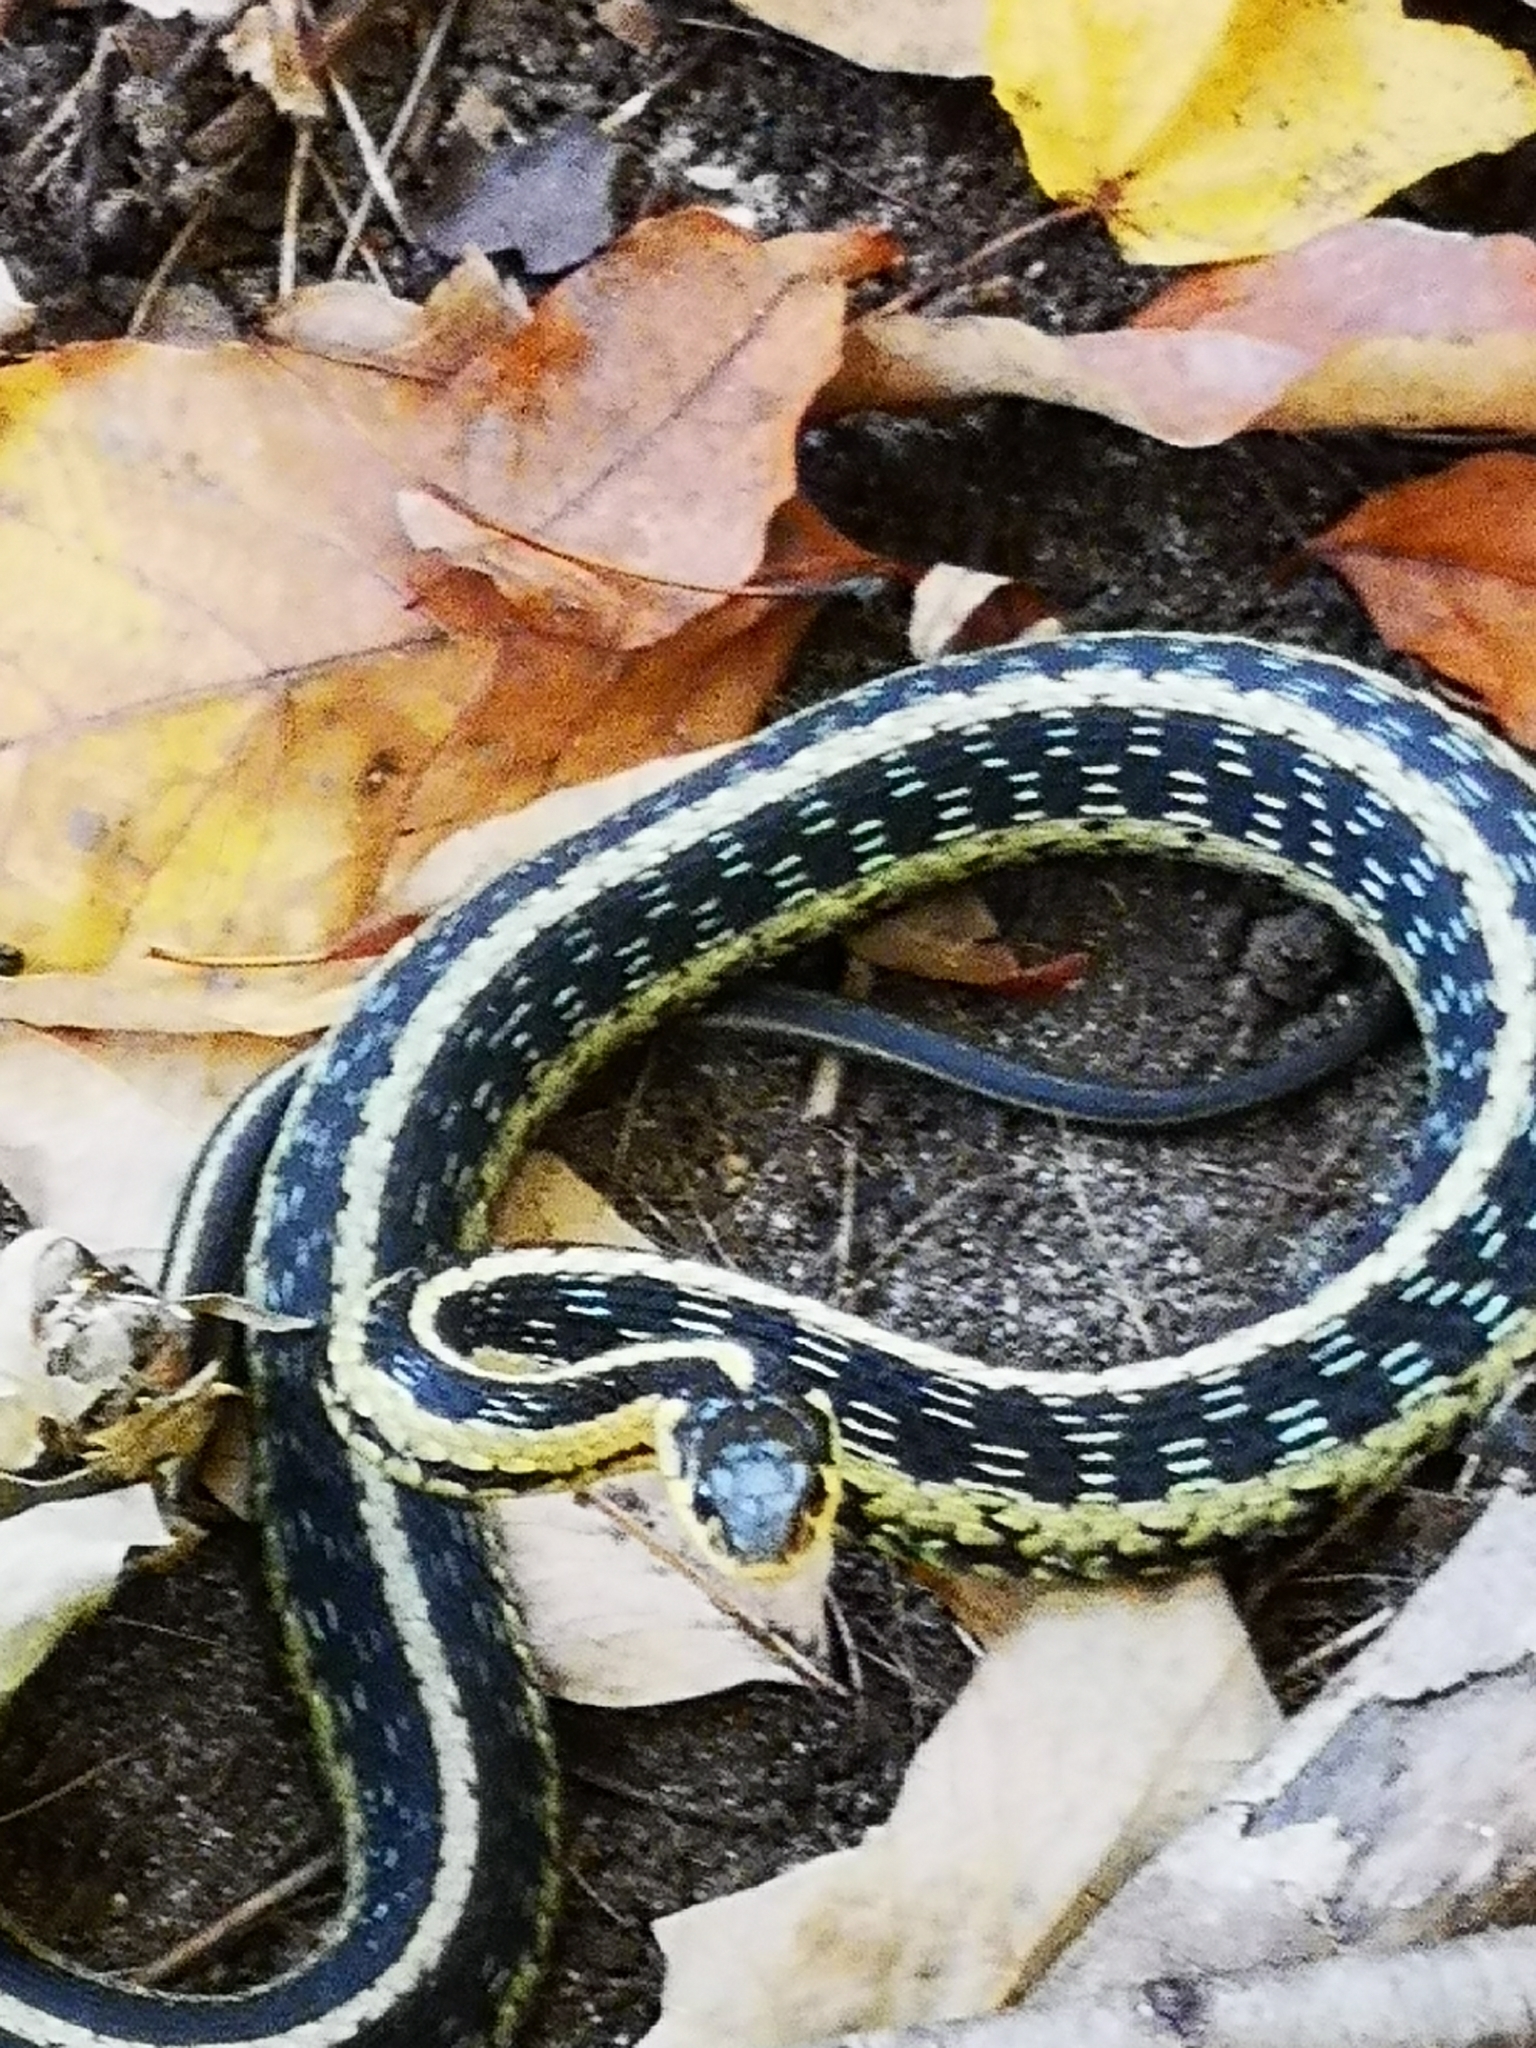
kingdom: Animalia
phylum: Chordata
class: Squamata
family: Colubridae
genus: Thamnophis
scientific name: Thamnophis sirtalis
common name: Common garter snake
